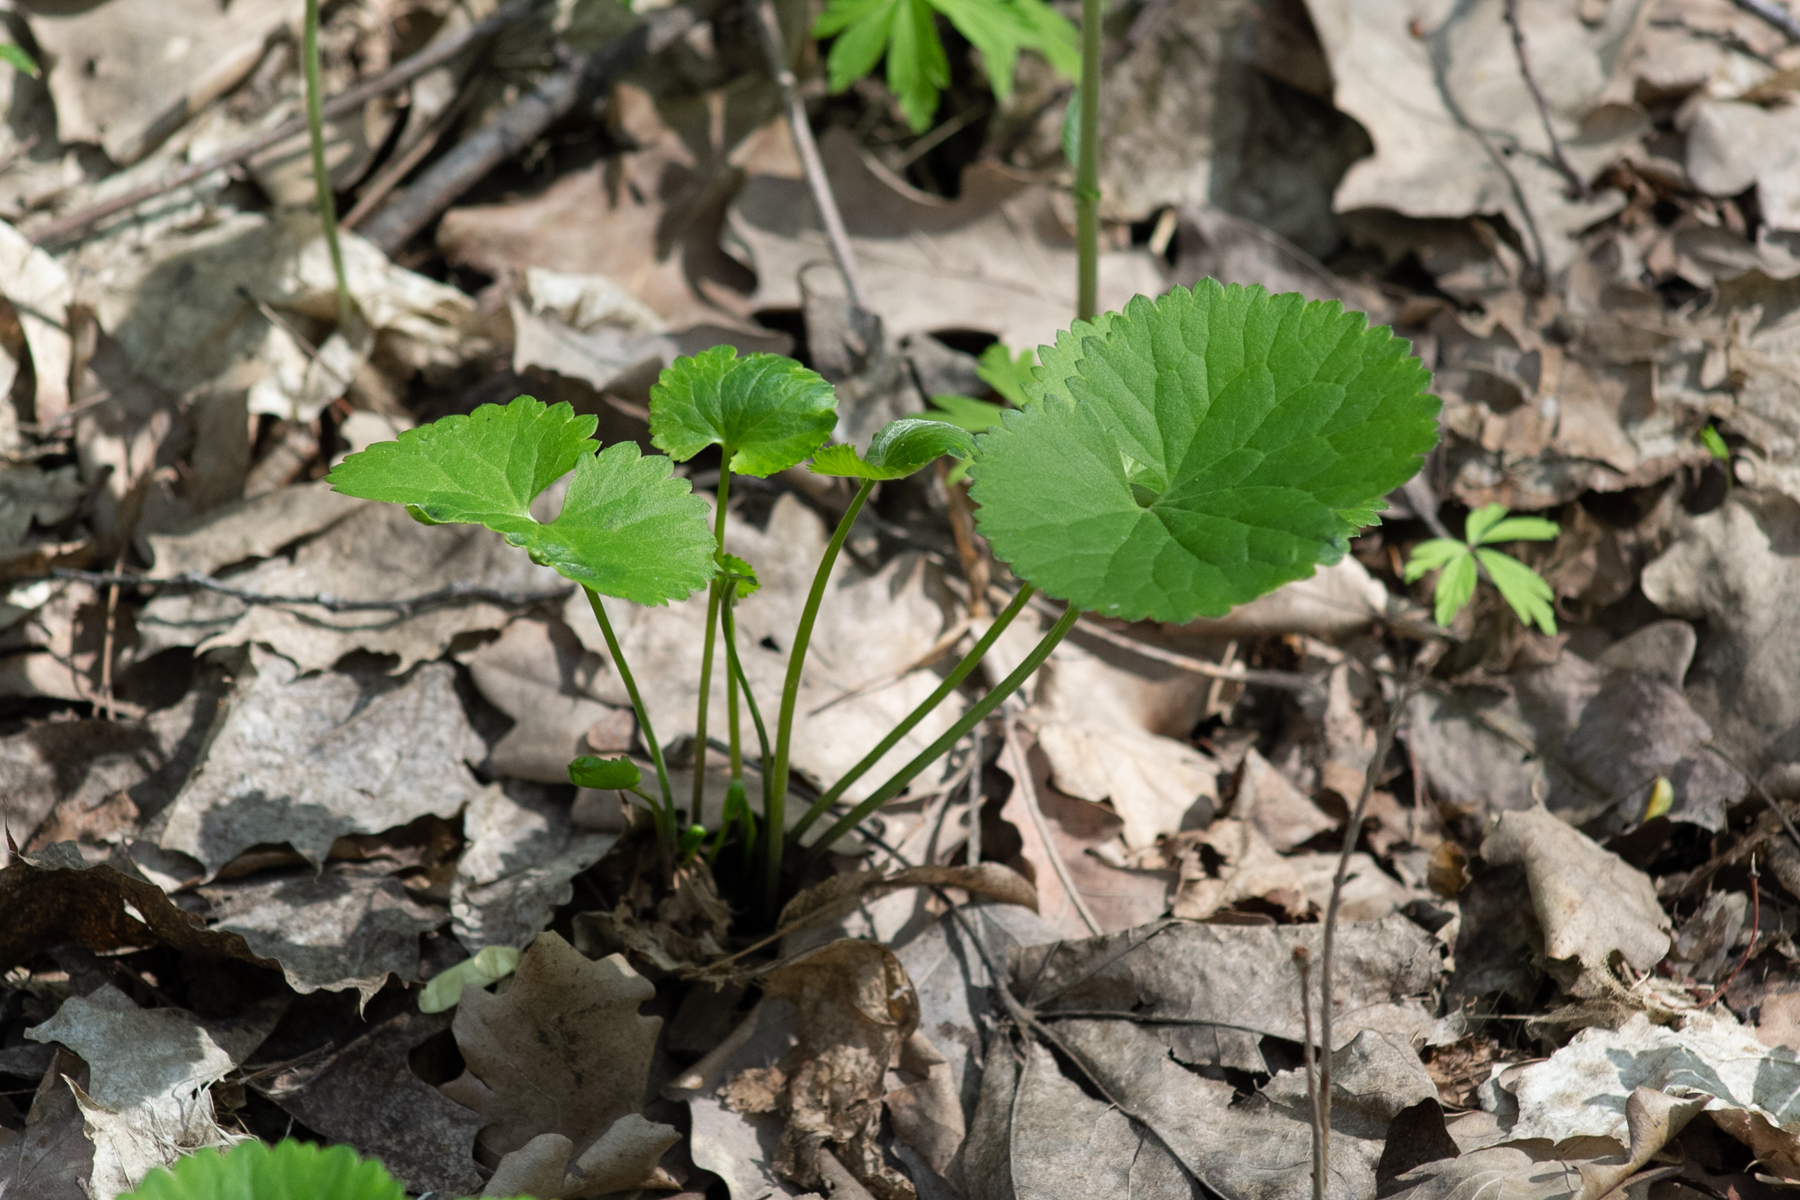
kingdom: Plantae
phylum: Tracheophyta
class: Magnoliopsida
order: Ranunculales
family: Ranunculaceae
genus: Ranunculus
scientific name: Ranunculus cassubicus
